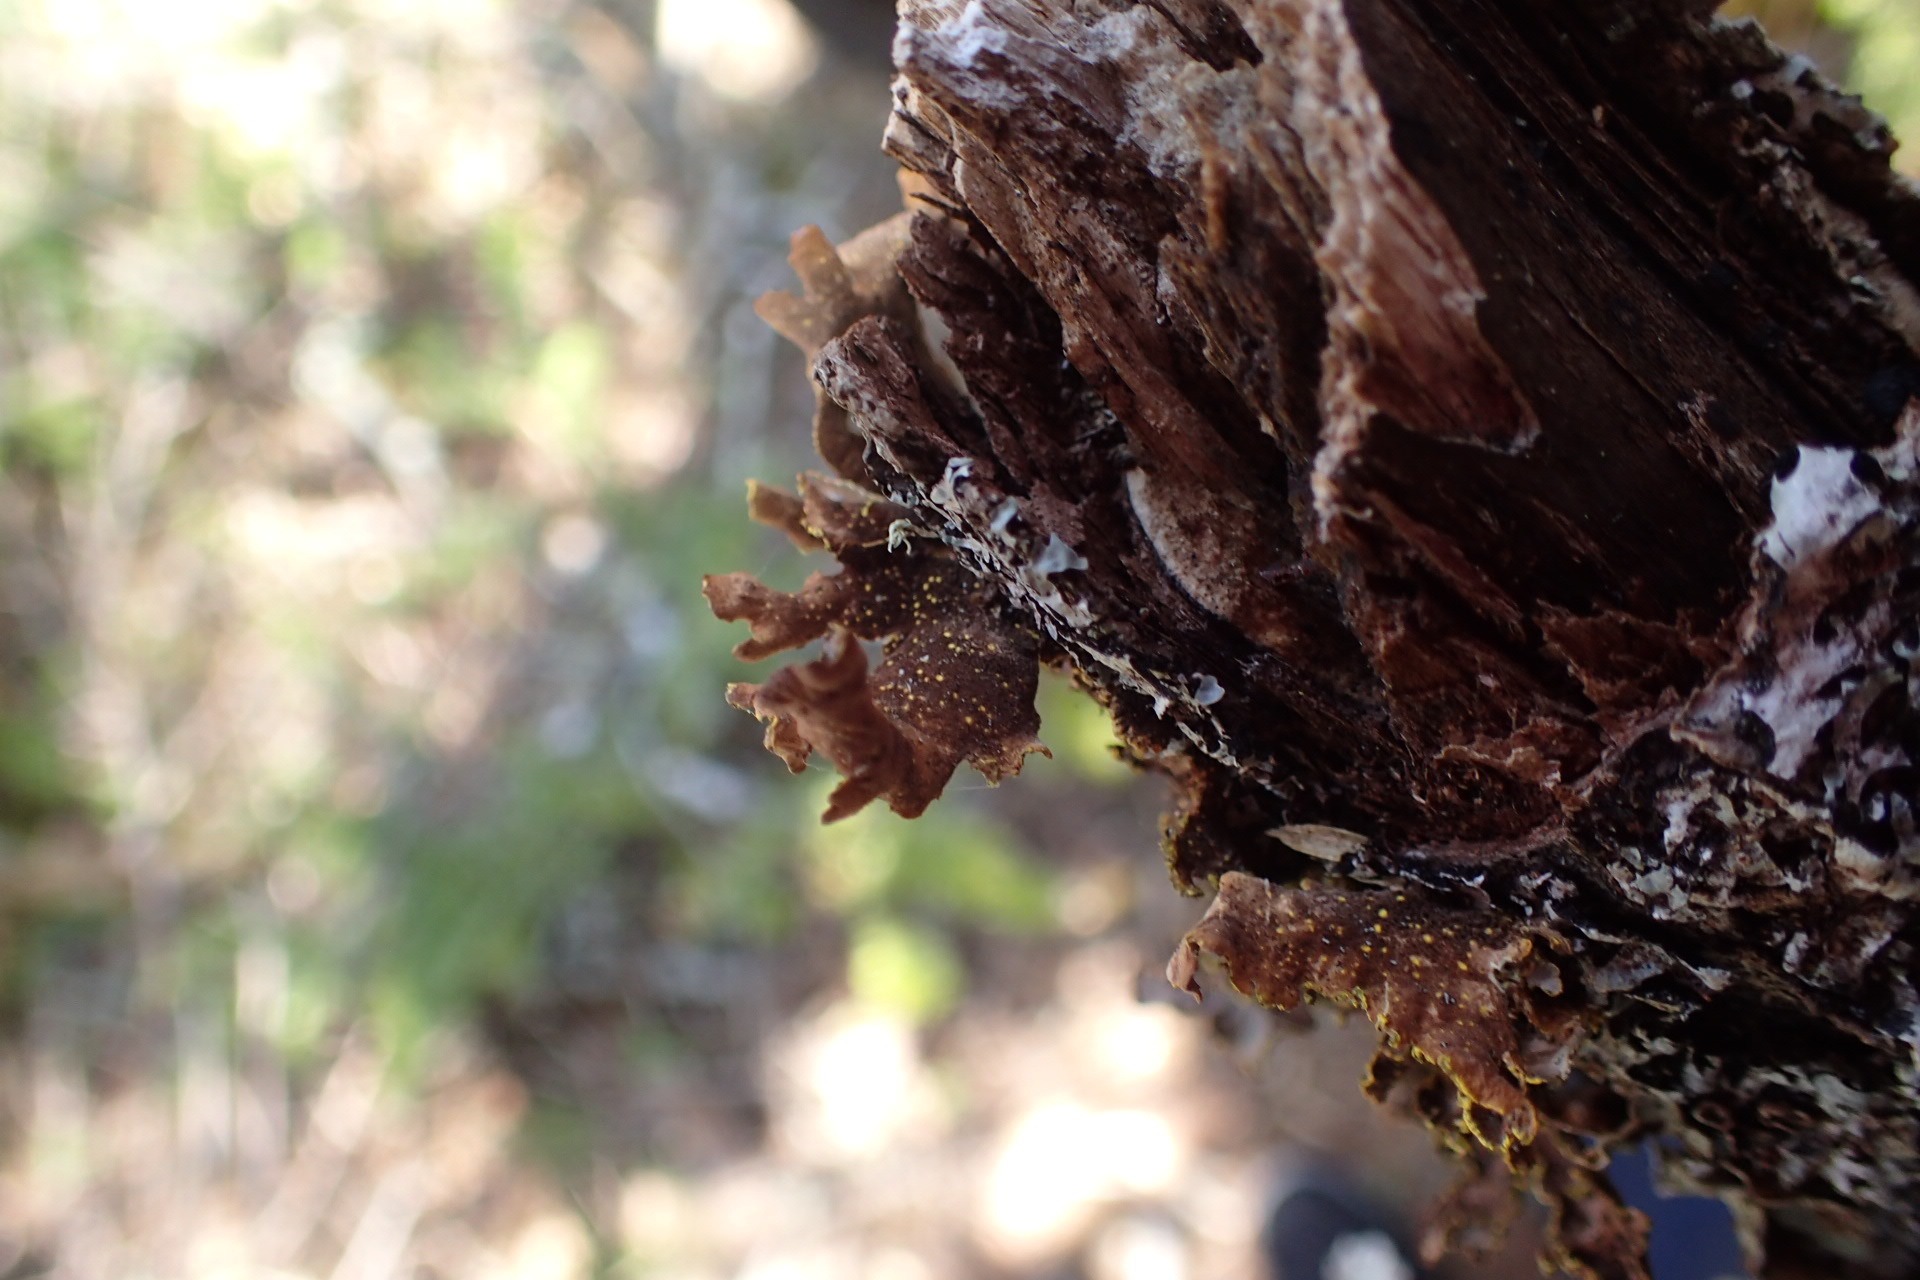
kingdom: Fungi
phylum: Ascomycota
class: Lecanoromycetes
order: Peltigerales
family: Lobariaceae
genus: Pseudocyphellaria
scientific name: Pseudocyphellaria holarctica
